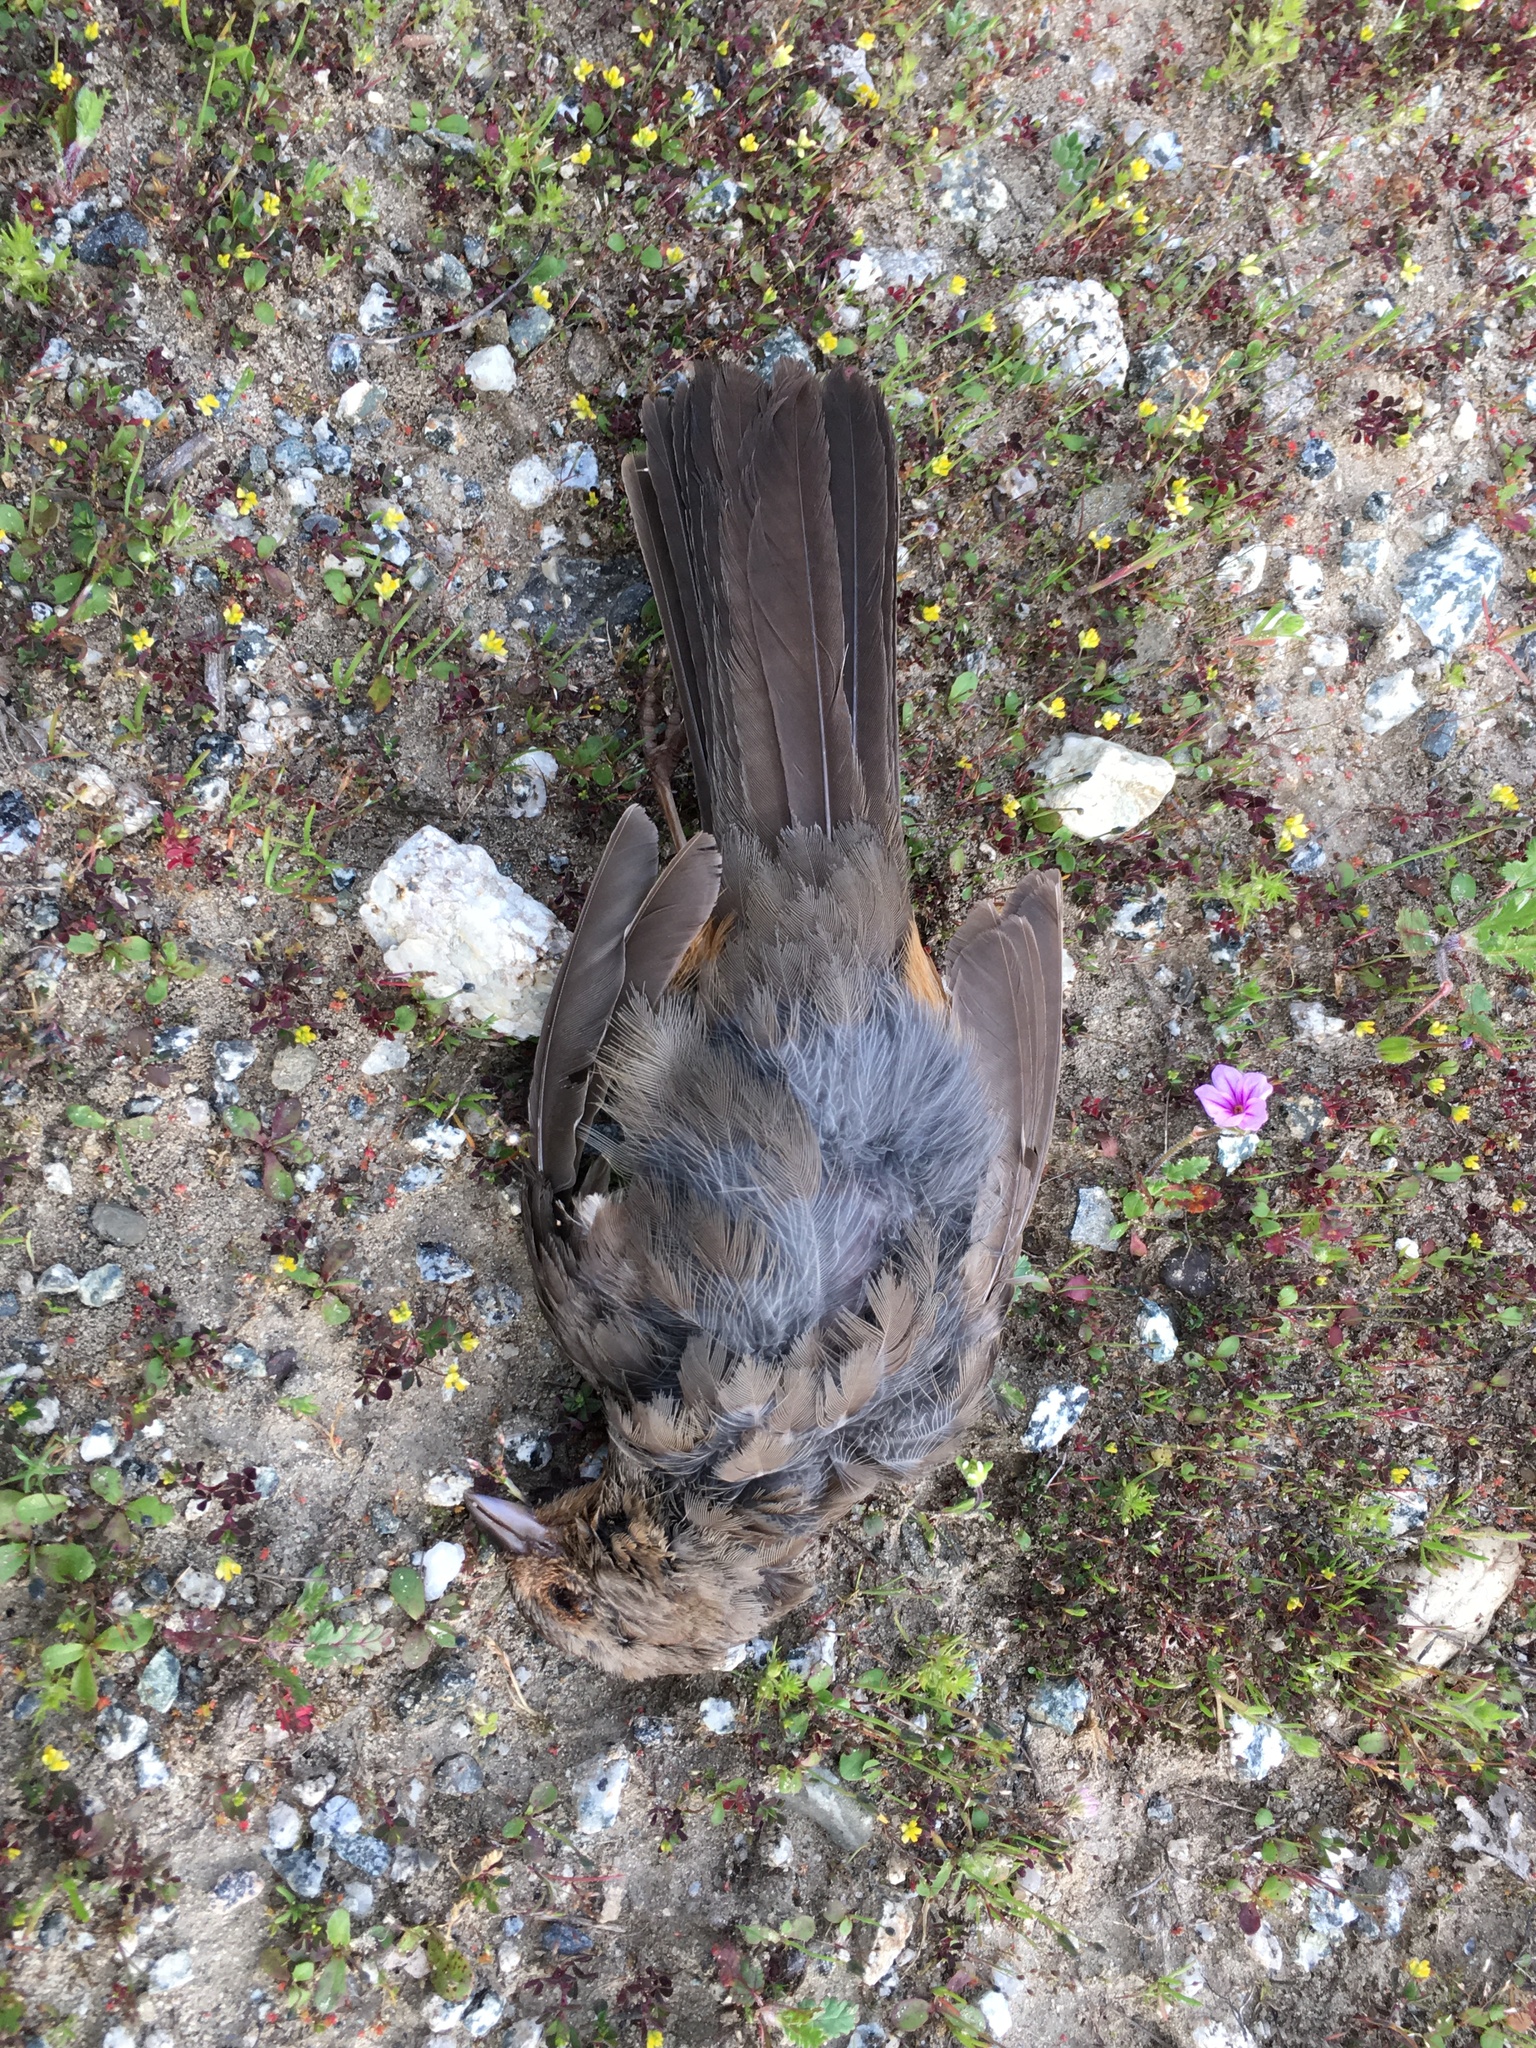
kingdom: Animalia
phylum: Chordata
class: Aves
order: Passeriformes
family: Passerellidae
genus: Melozone
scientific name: Melozone crissalis
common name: California towhee
